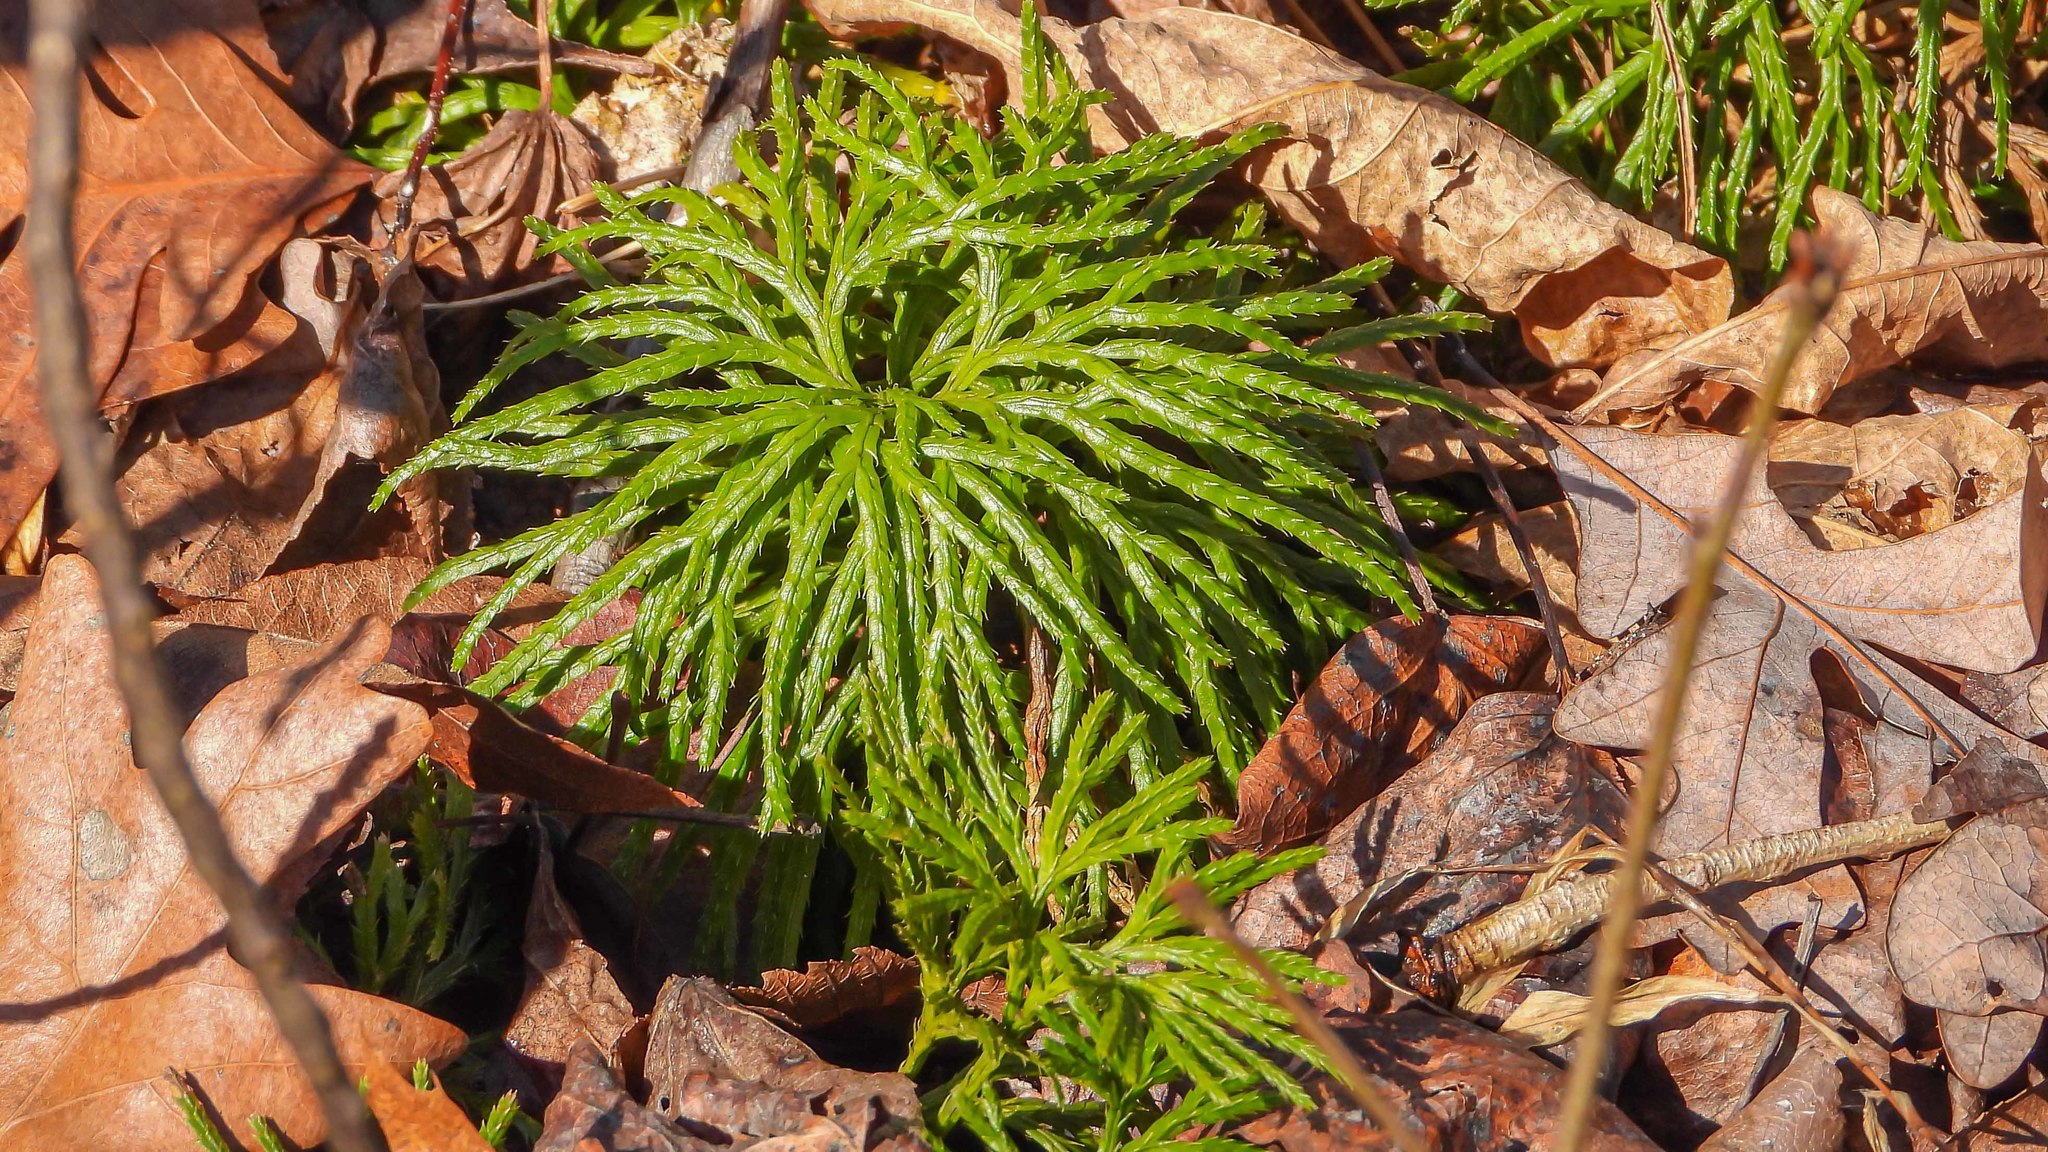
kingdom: Plantae
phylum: Tracheophyta
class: Lycopodiopsida
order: Lycopodiales
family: Lycopodiaceae
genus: Diphasiastrum
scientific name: Diphasiastrum digitatum
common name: Southern running-pine
